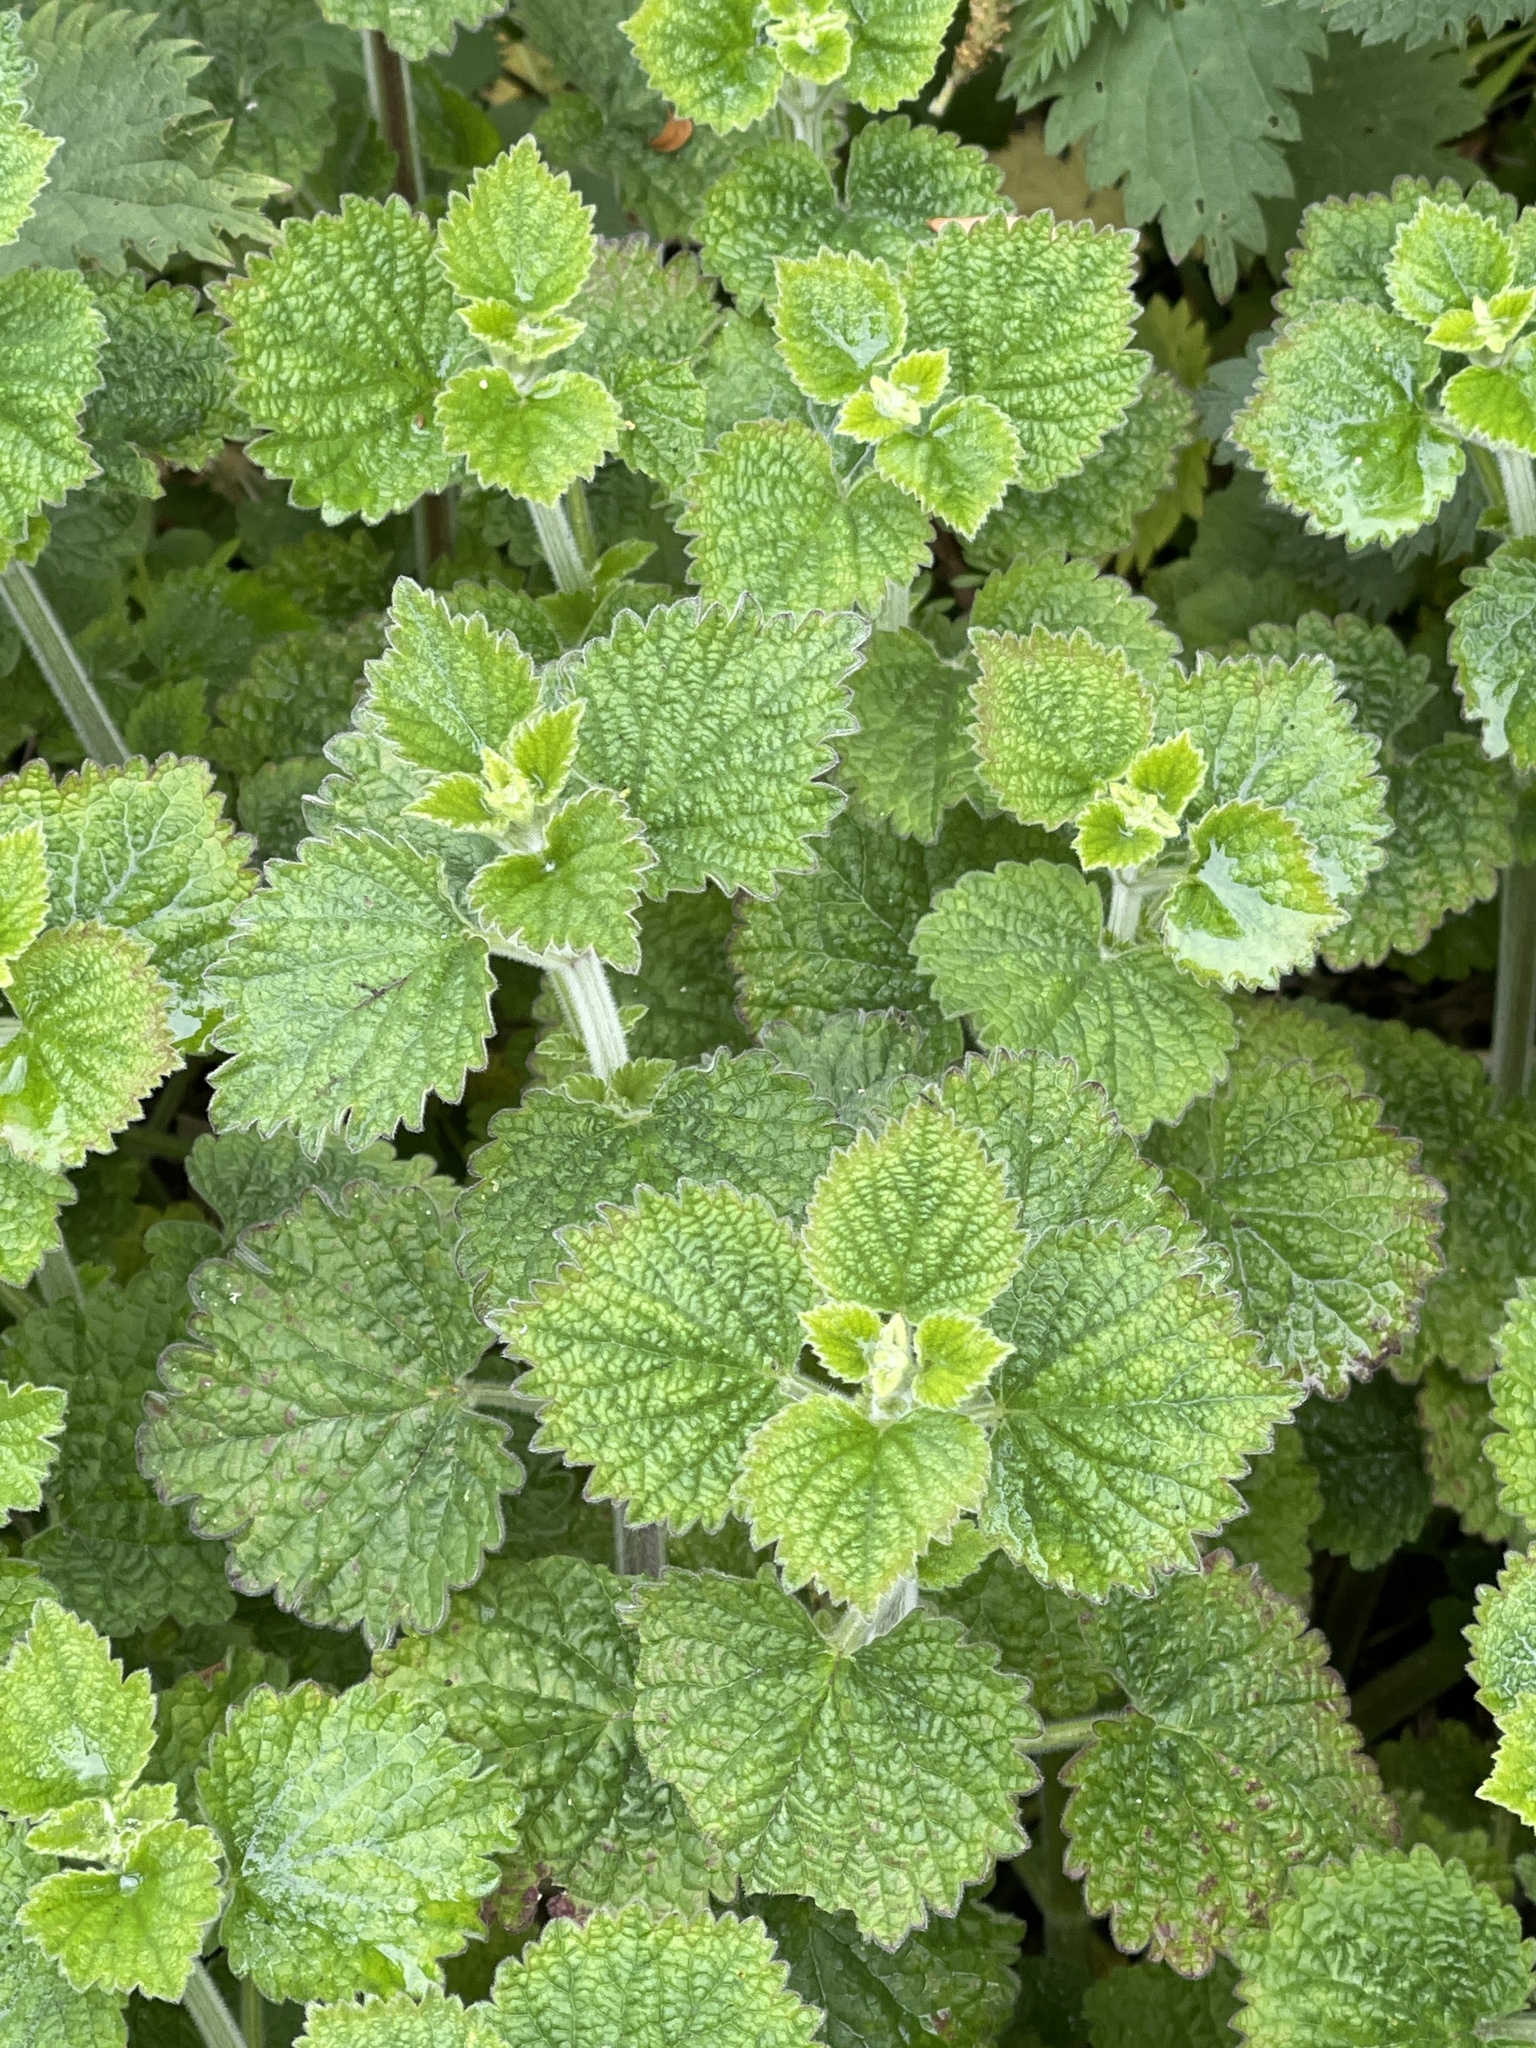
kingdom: Plantae
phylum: Tracheophyta
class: Magnoliopsida
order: Lamiales
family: Lamiaceae
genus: Ballota
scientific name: Ballota nigra
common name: Black horehound
